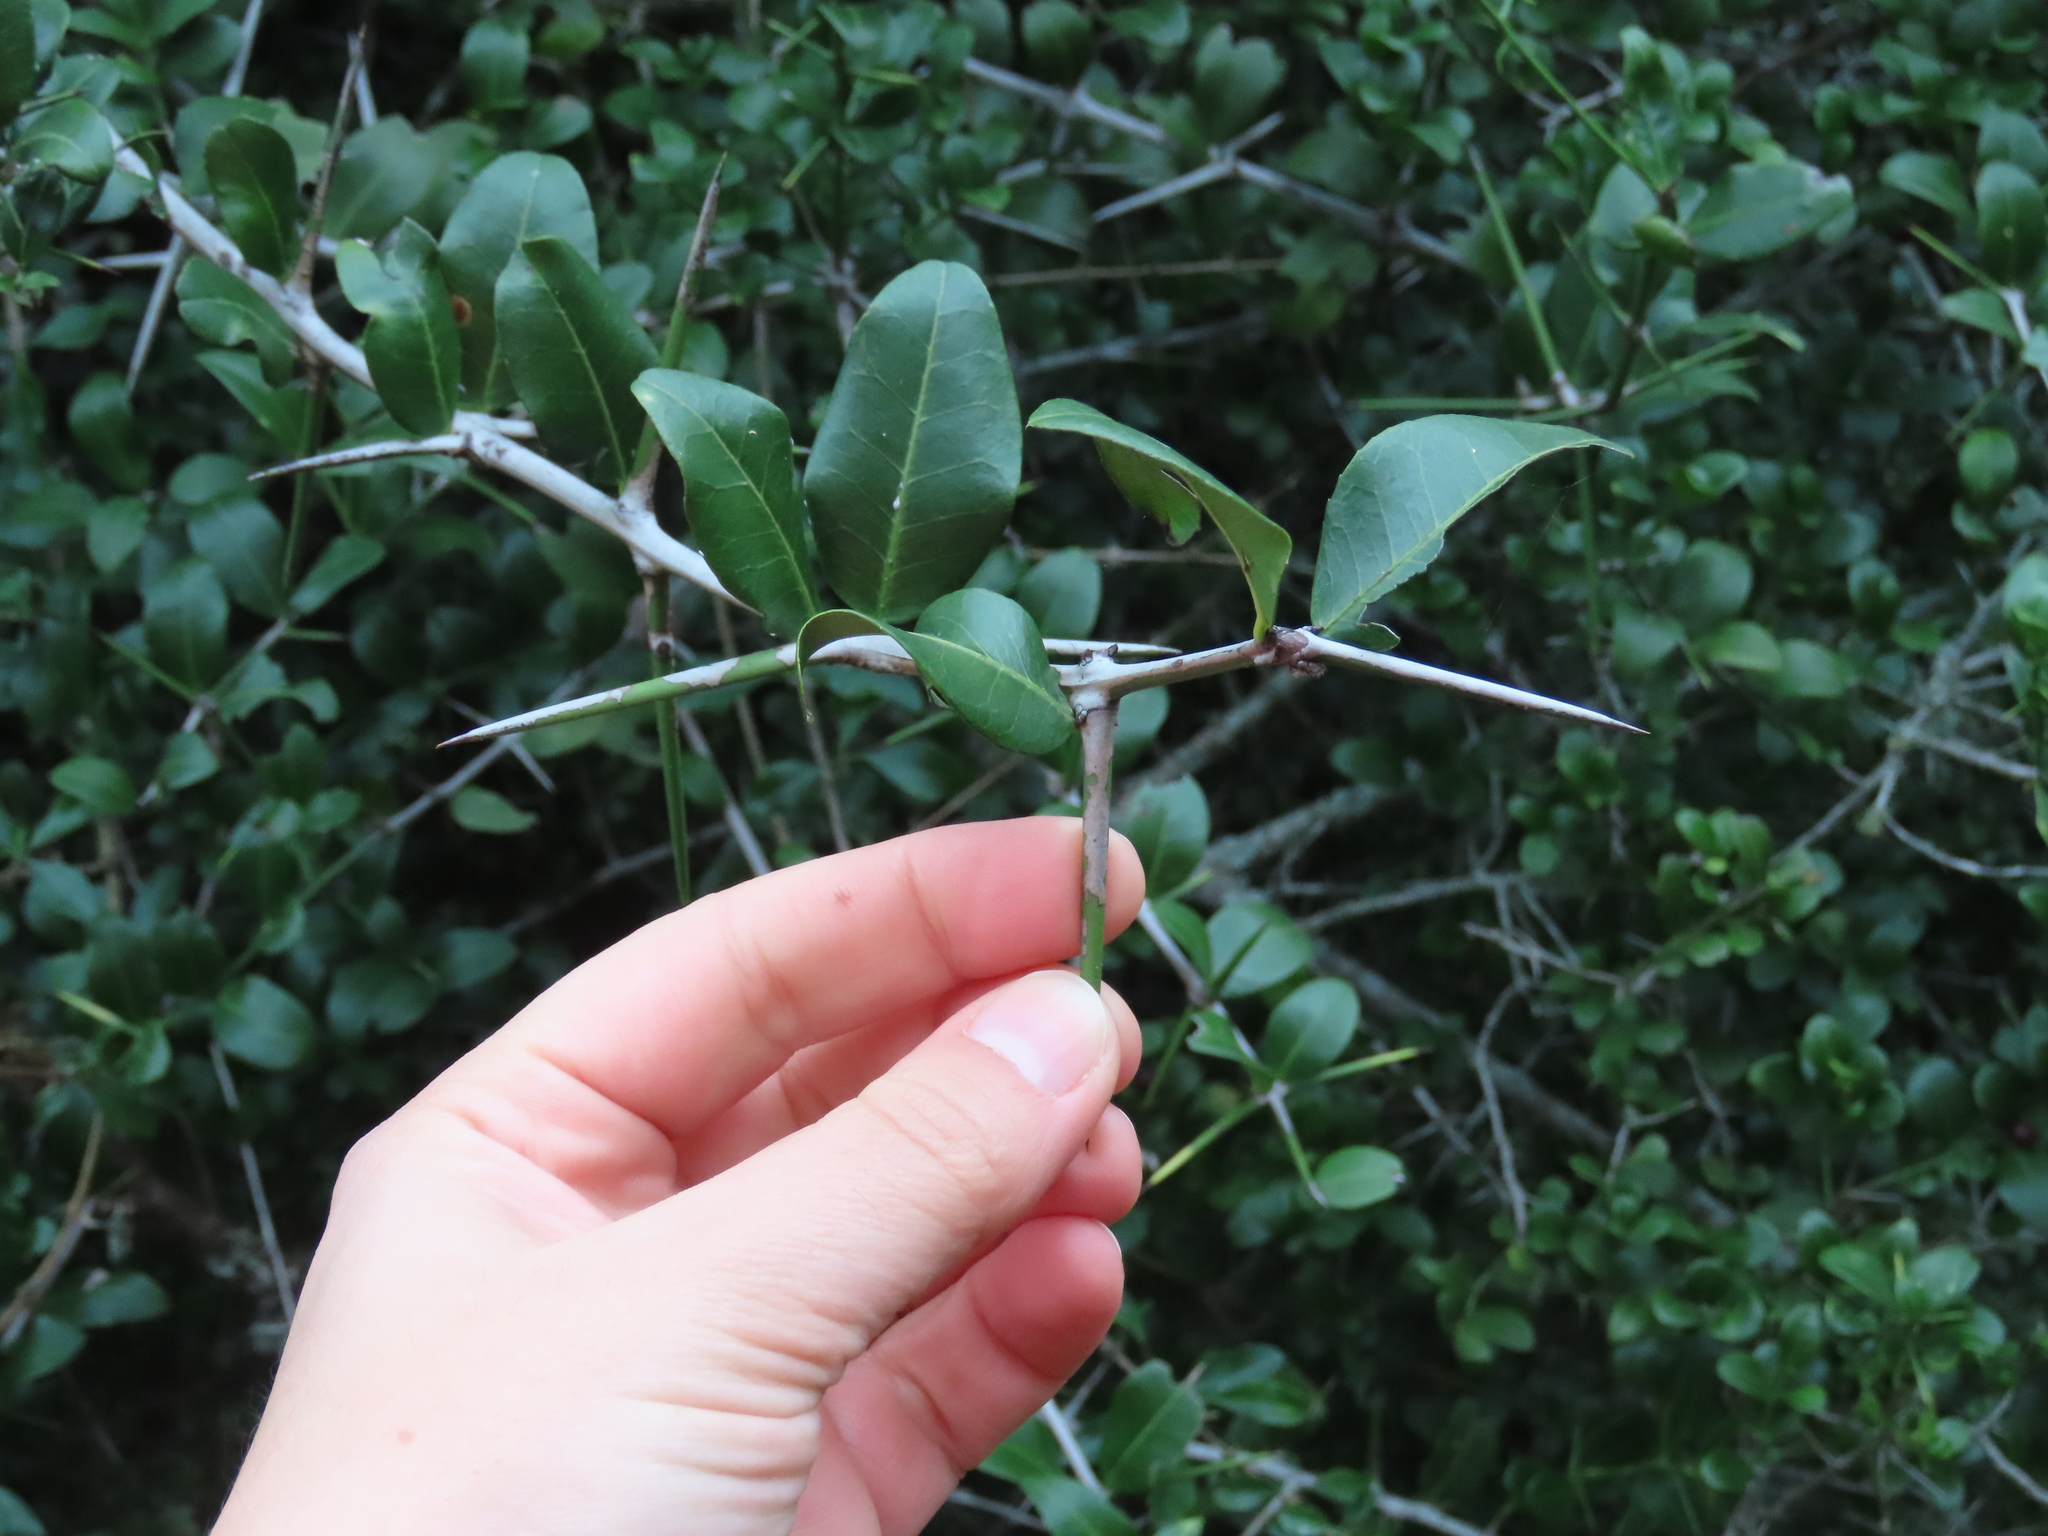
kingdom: Plantae
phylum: Tracheophyta
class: Magnoliopsida
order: Rosales
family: Rhamnaceae
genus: Scutia
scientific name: Scutia buxifolia
